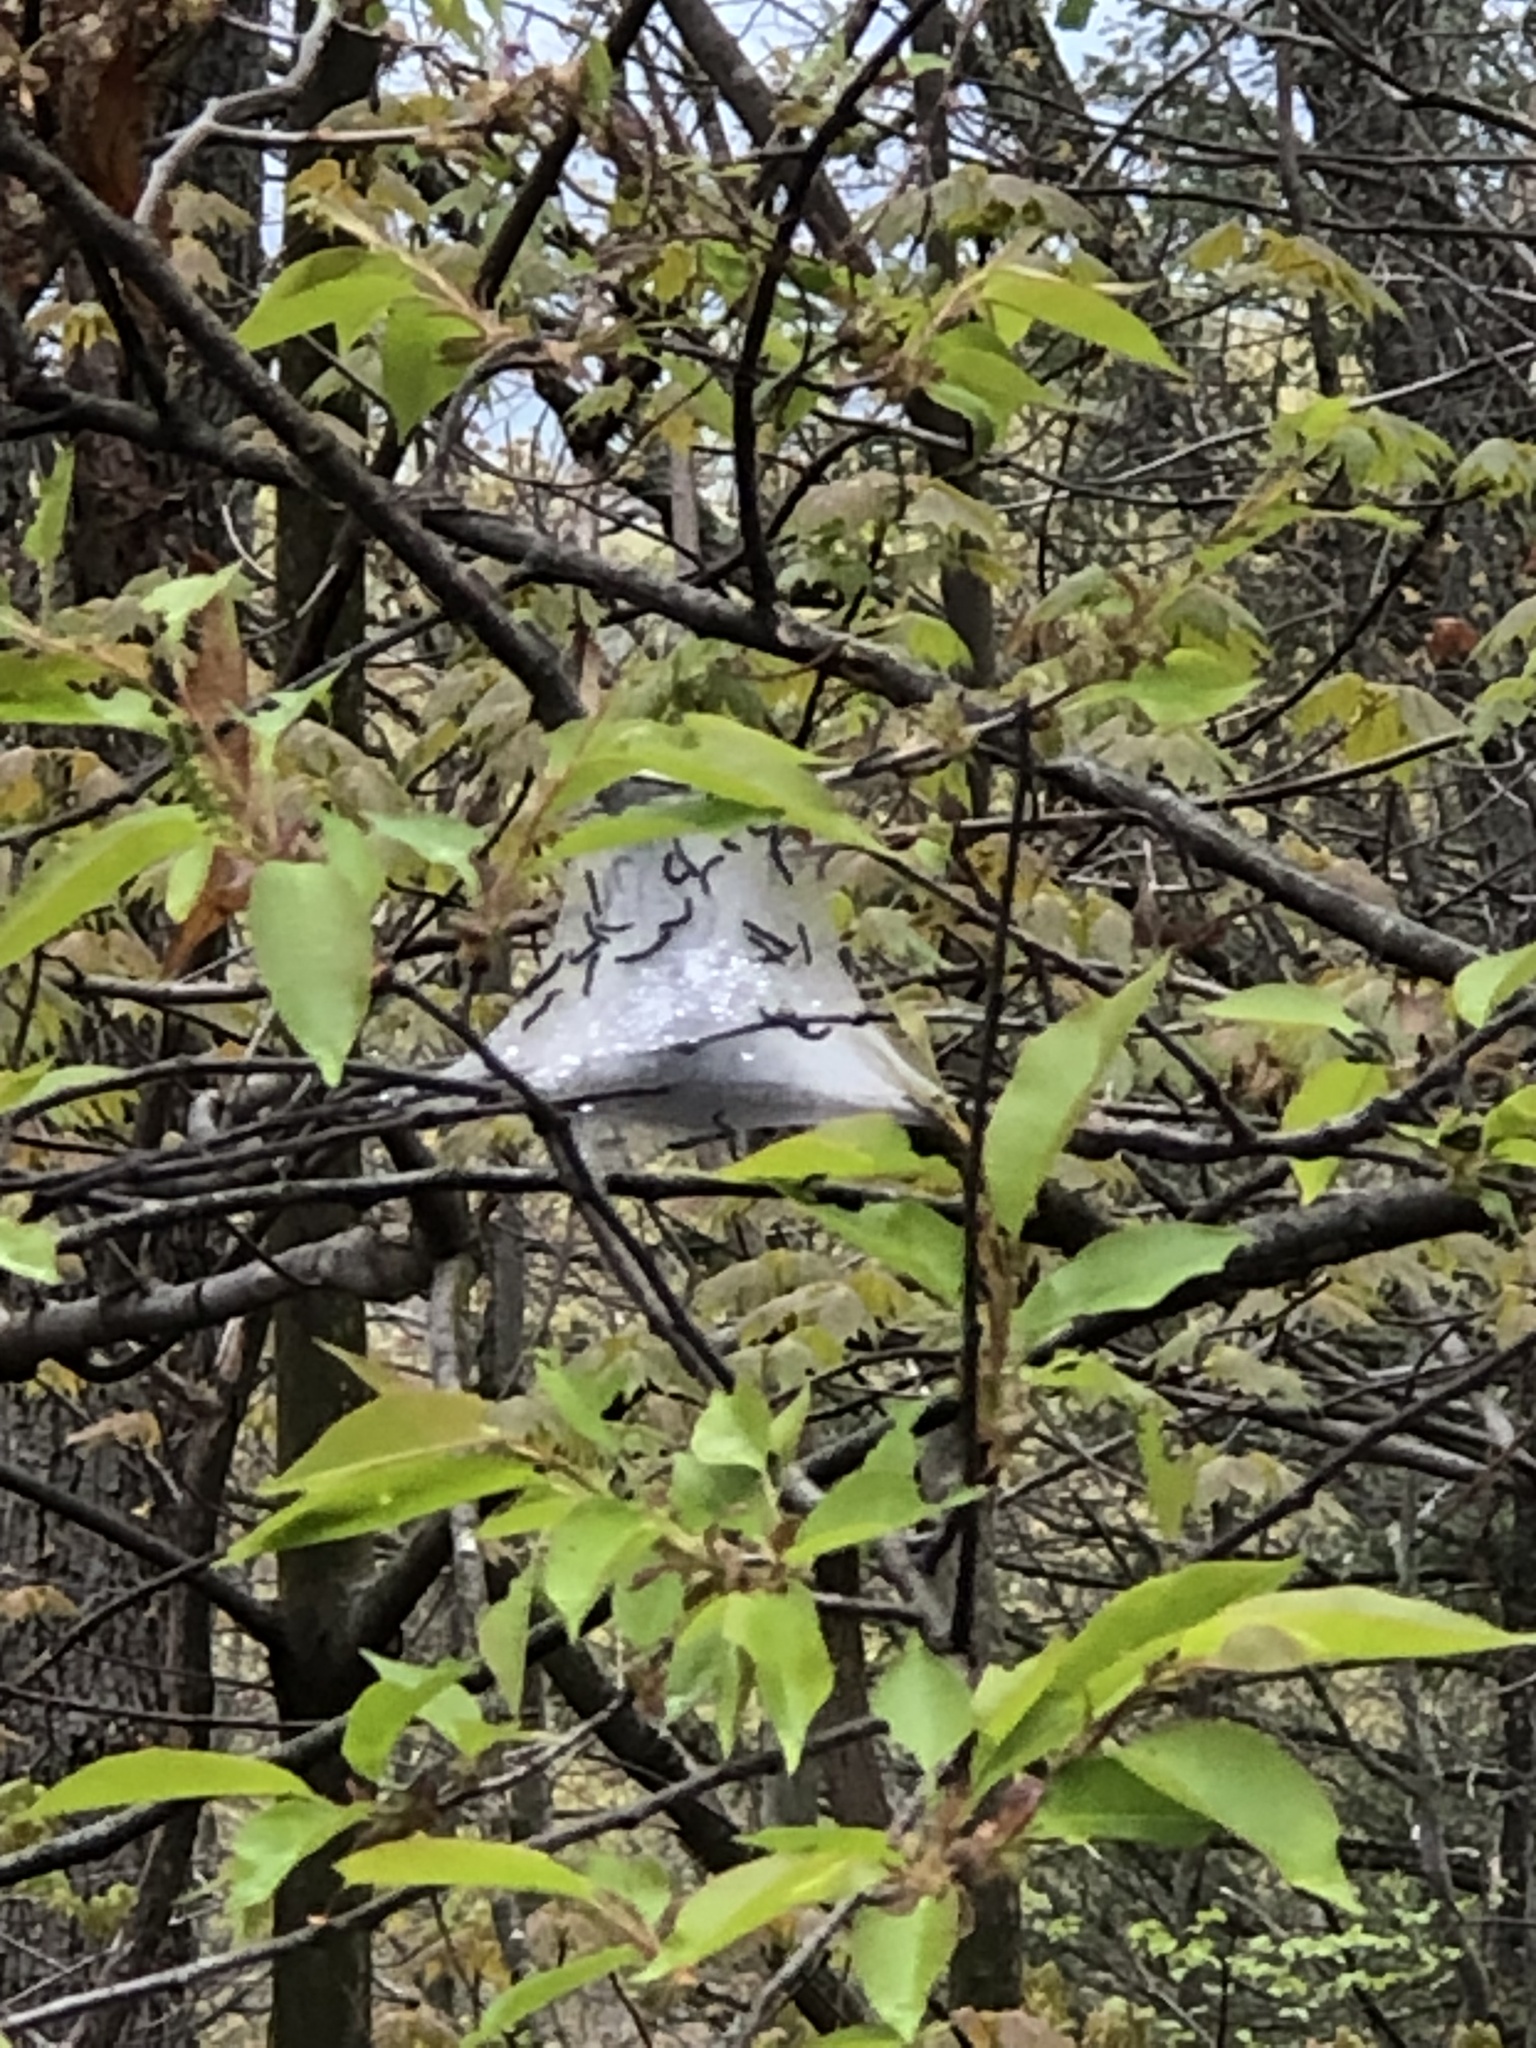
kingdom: Animalia
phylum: Arthropoda
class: Insecta
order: Lepidoptera
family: Lasiocampidae
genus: Malacosoma
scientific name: Malacosoma americana
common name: Eastern tent caterpillar moth
